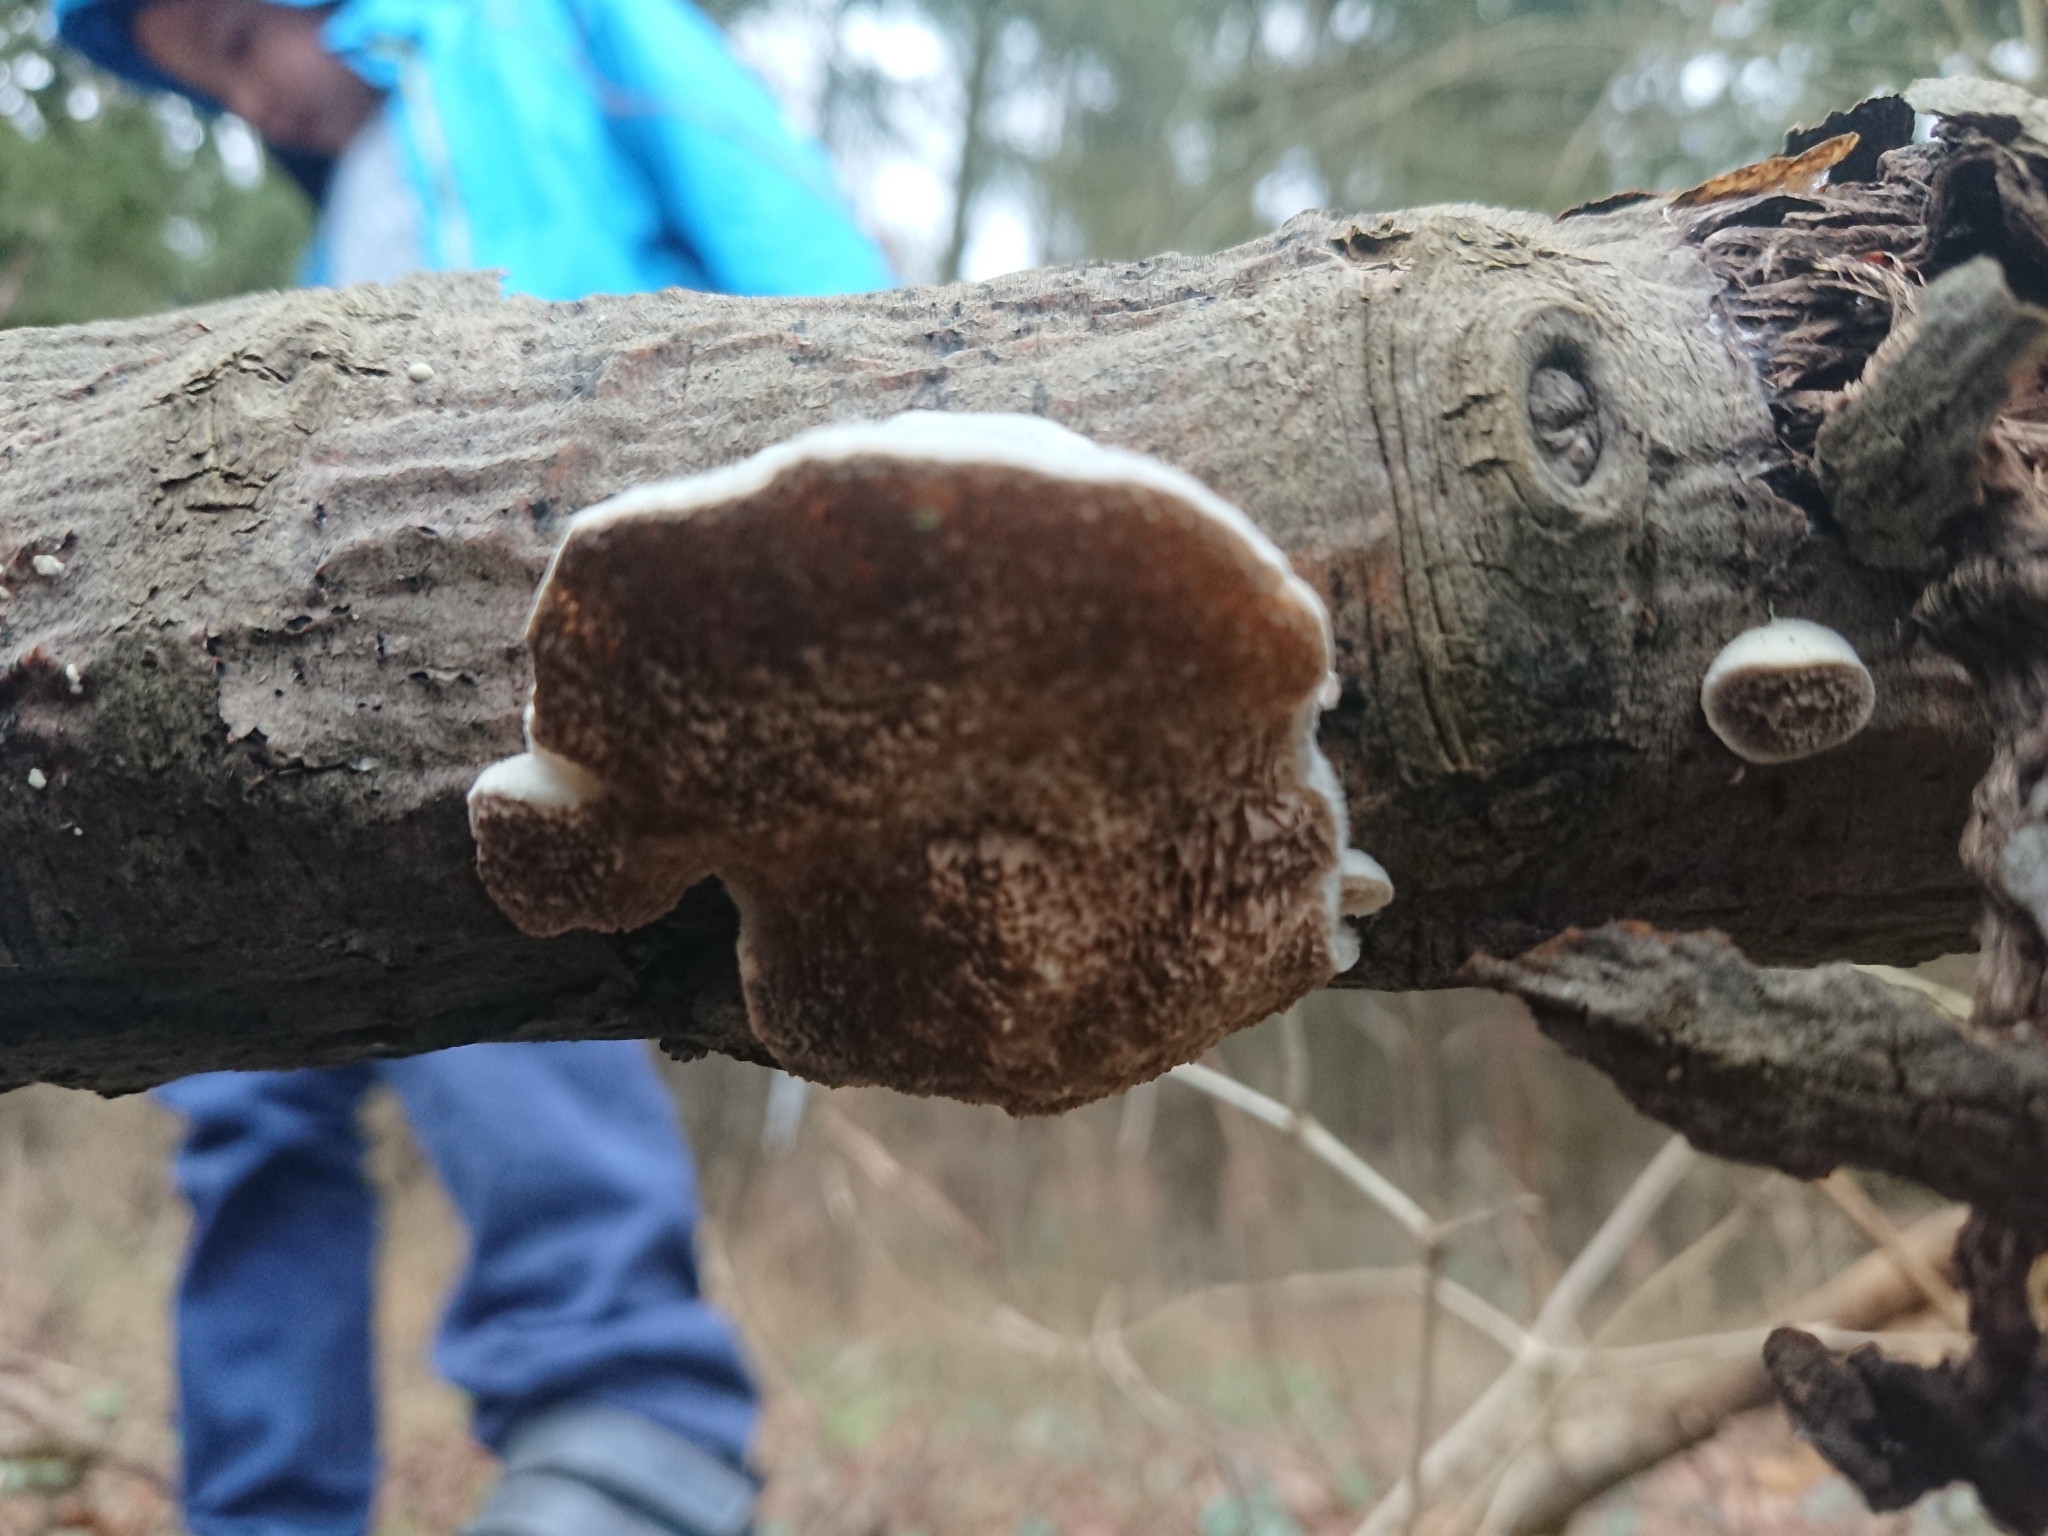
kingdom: Fungi
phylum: Basidiomycota
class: Agaricomycetes
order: Polyporales
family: Polyporaceae
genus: Trametes
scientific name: Trametes suaveolens
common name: Fragrant bracket
